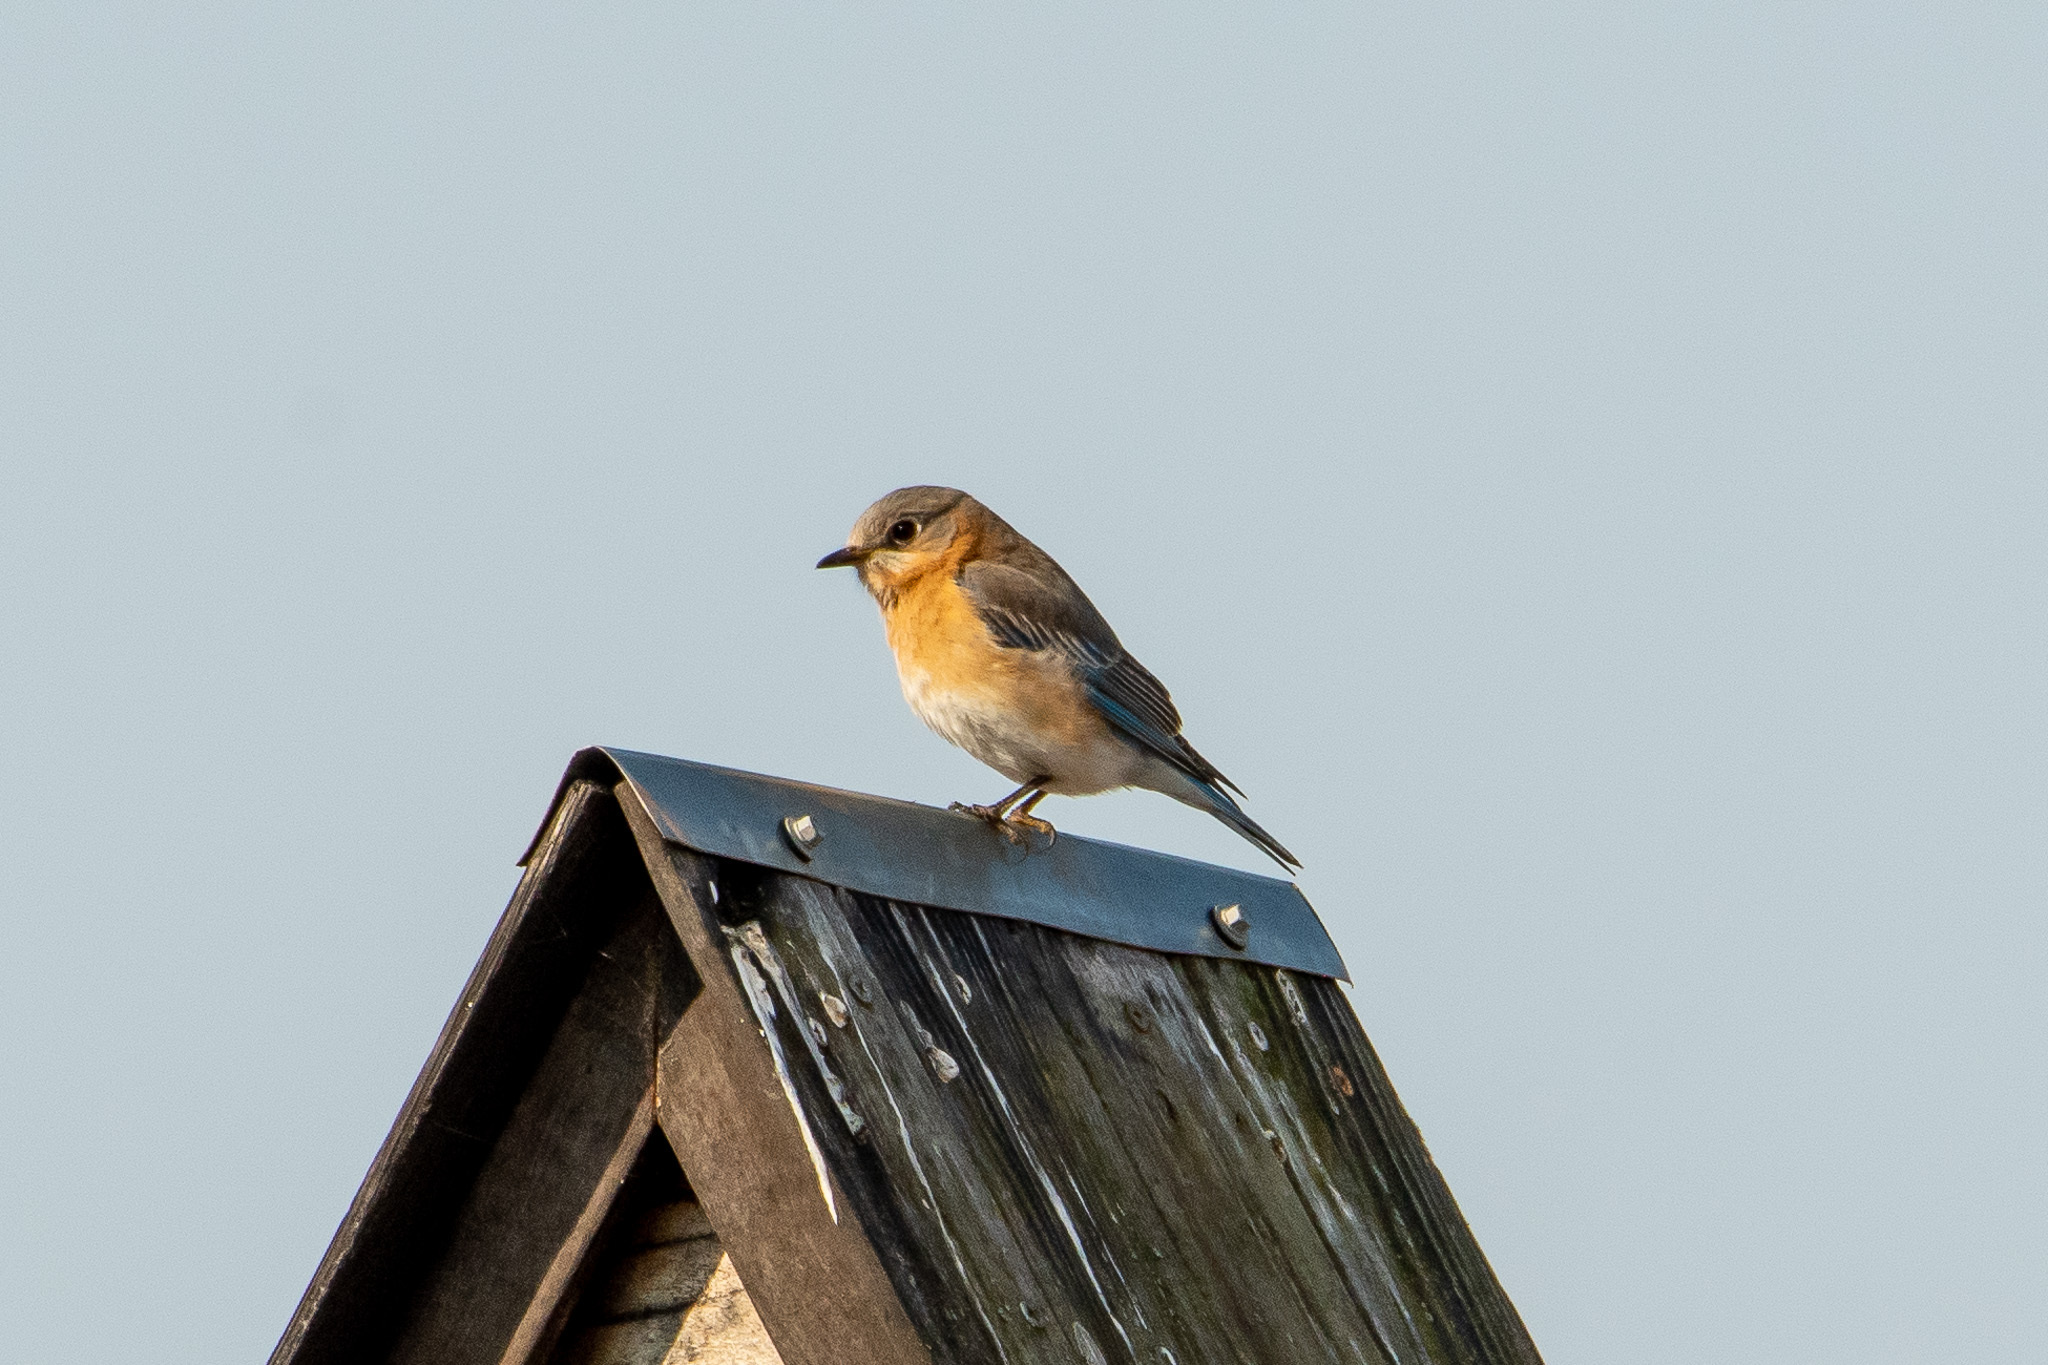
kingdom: Animalia
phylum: Chordata
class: Aves
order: Passeriformes
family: Turdidae
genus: Sialia
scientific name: Sialia sialis
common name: Eastern bluebird
